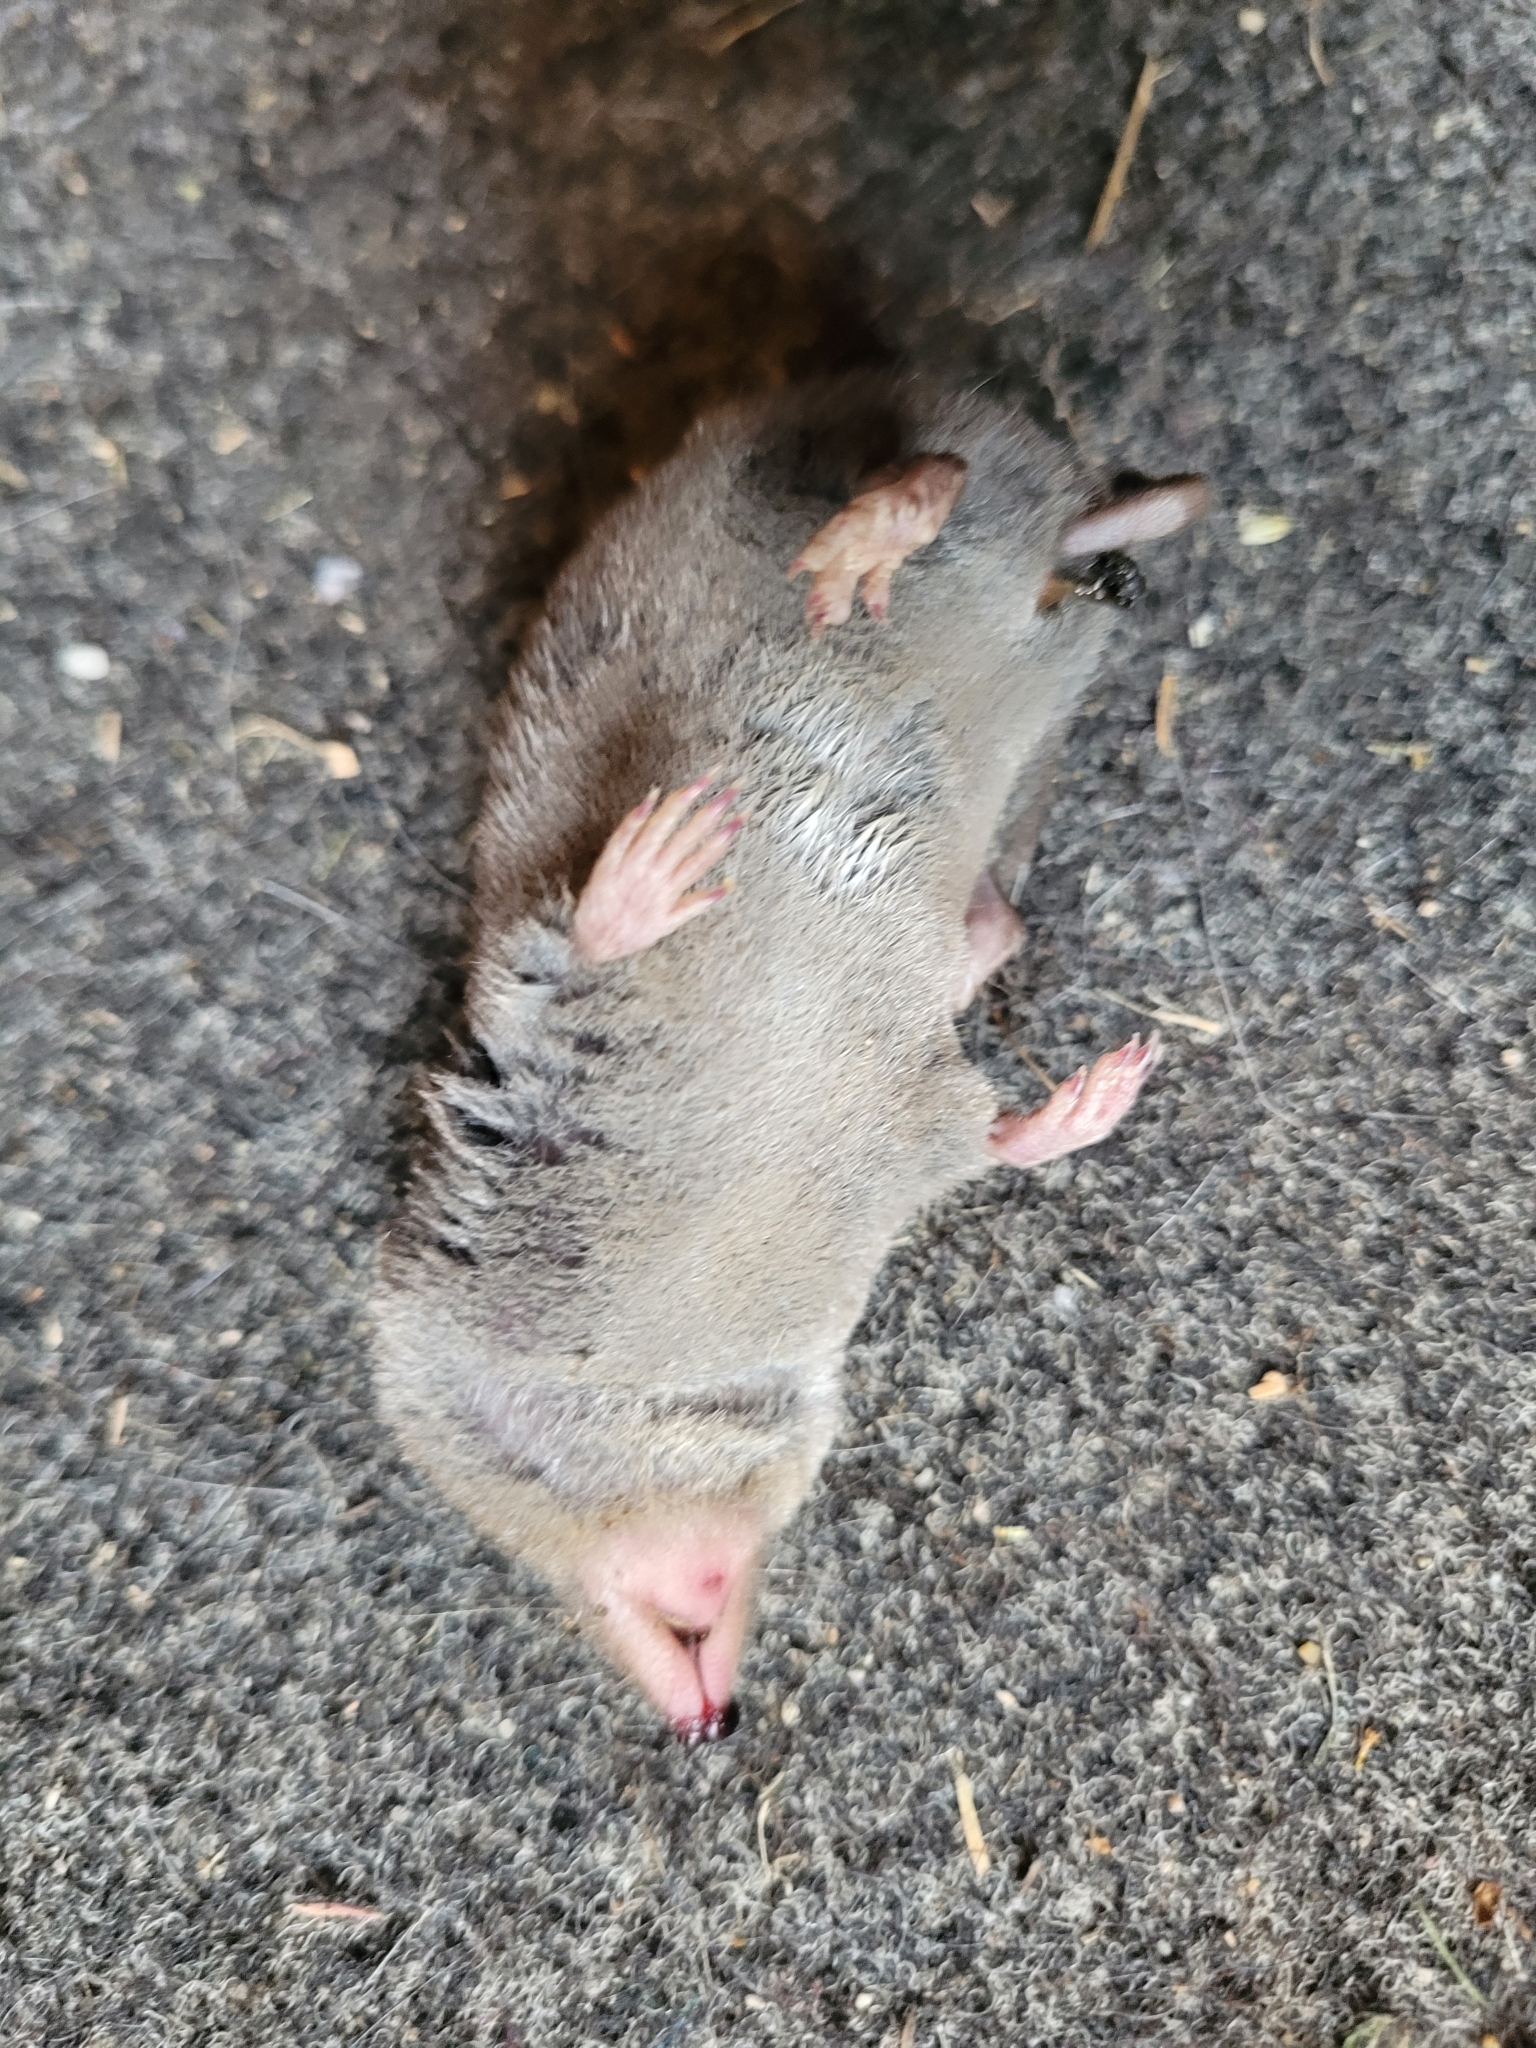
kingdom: Animalia
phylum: Chordata
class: Mammalia
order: Soricomorpha
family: Soricidae
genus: Blarina
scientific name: Blarina brevicauda
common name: Northern short-tailed shrew
